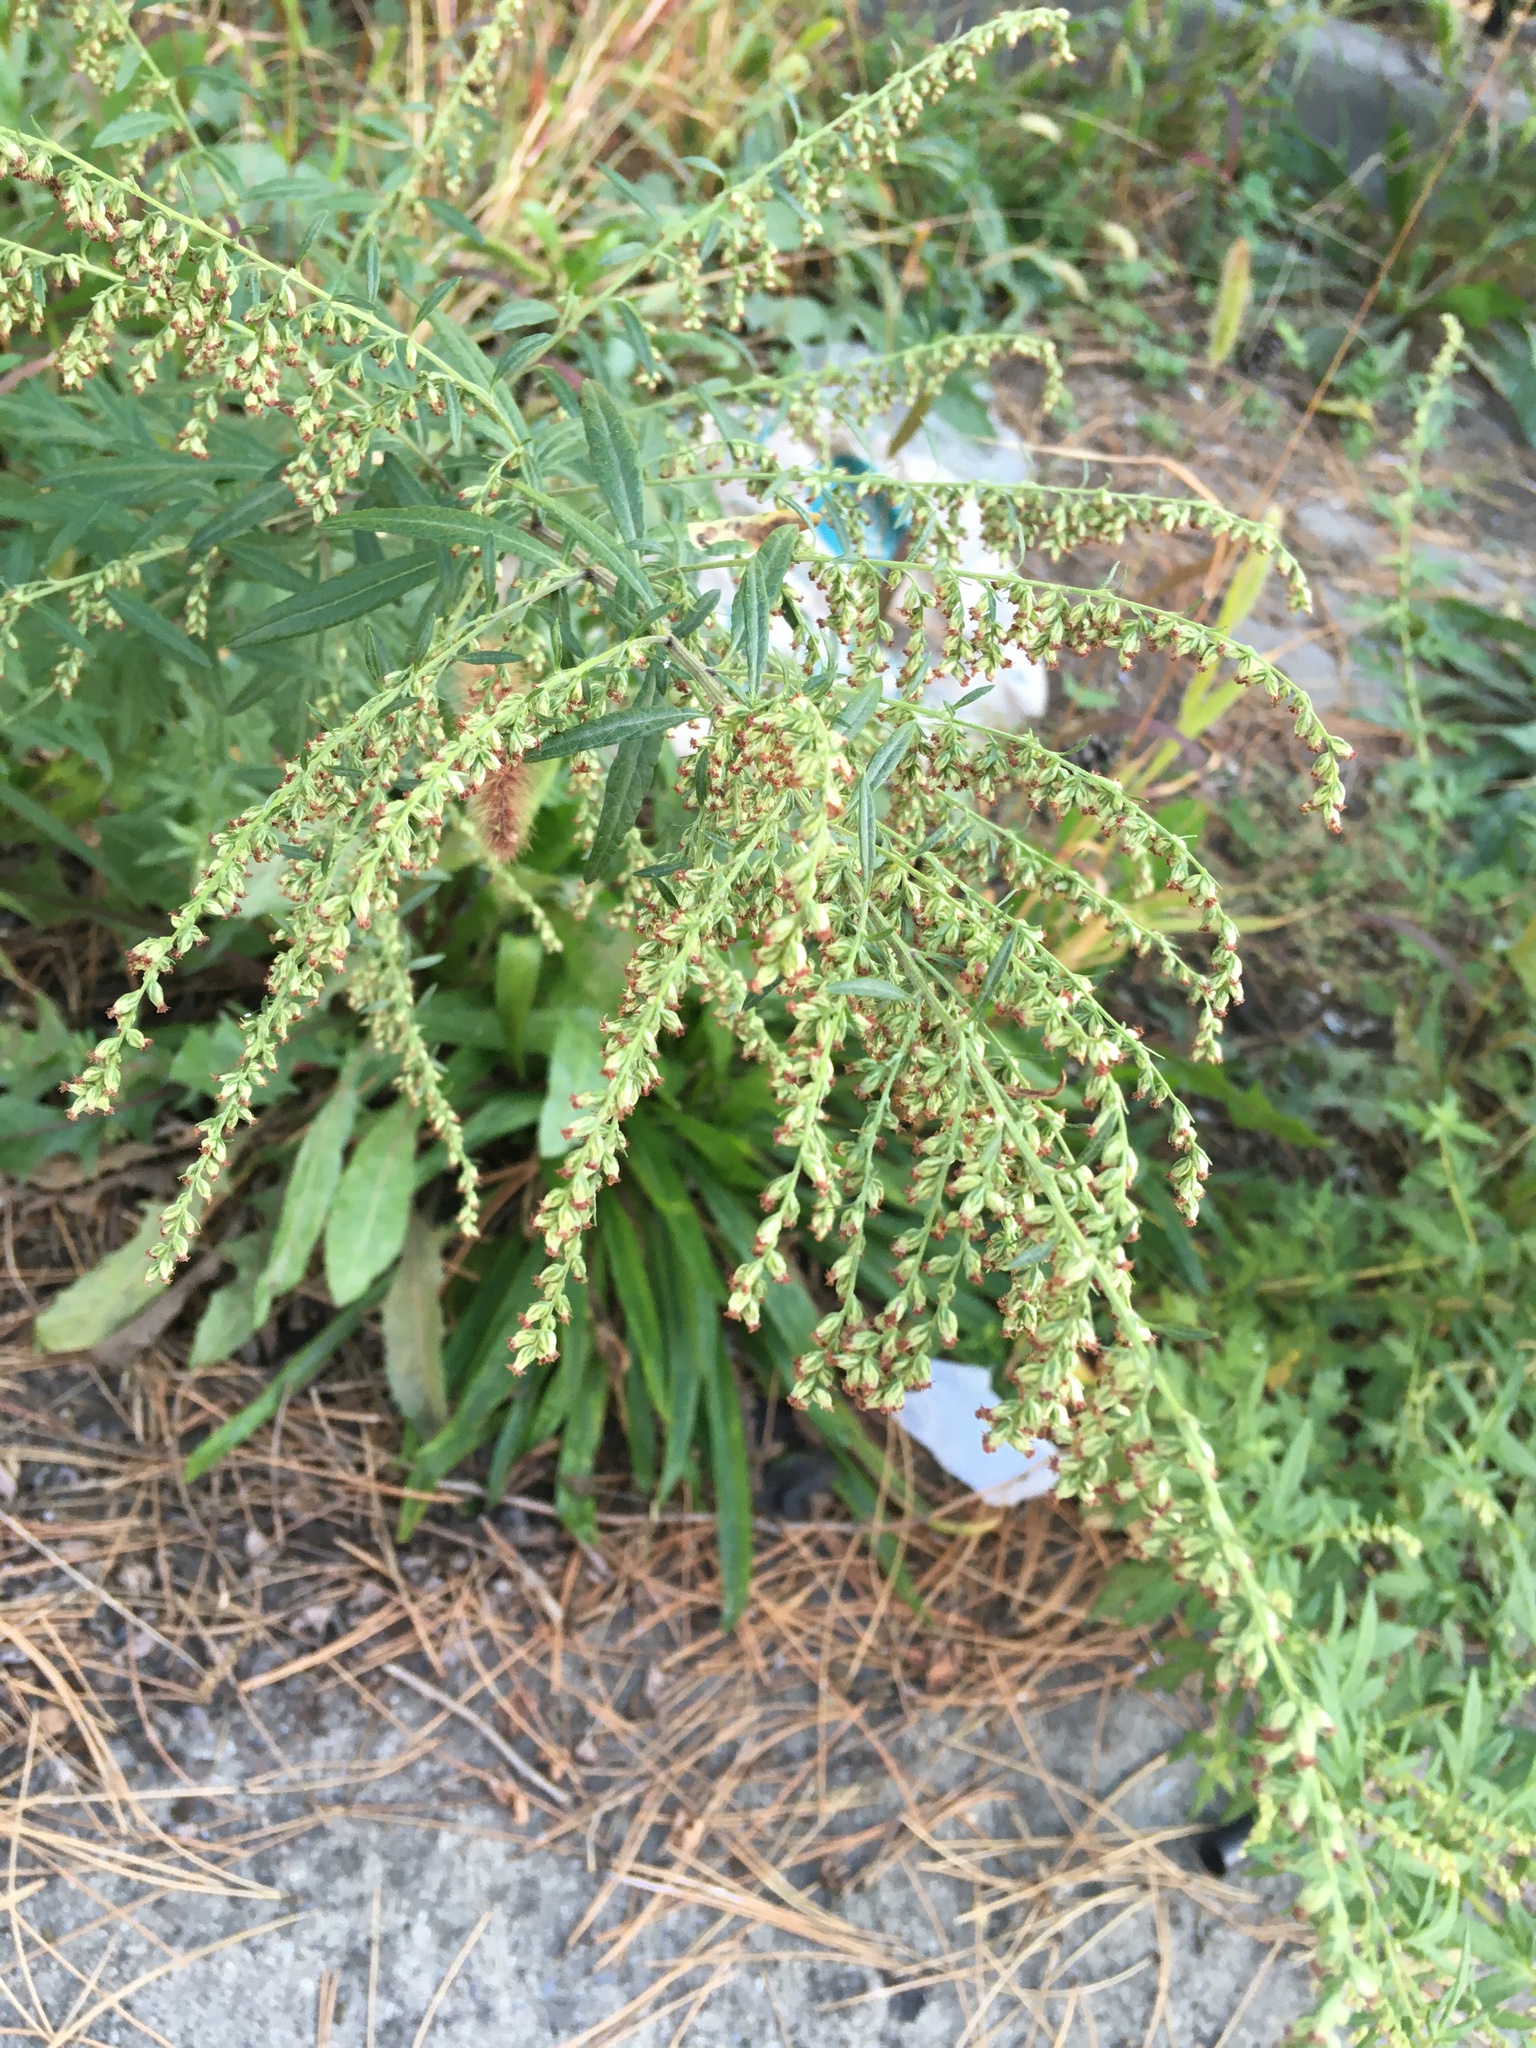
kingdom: Plantae
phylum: Tracheophyta
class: Magnoliopsida
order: Asterales
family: Asteraceae
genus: Artemisia
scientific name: Artemisia vulgaris
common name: Mugwort
